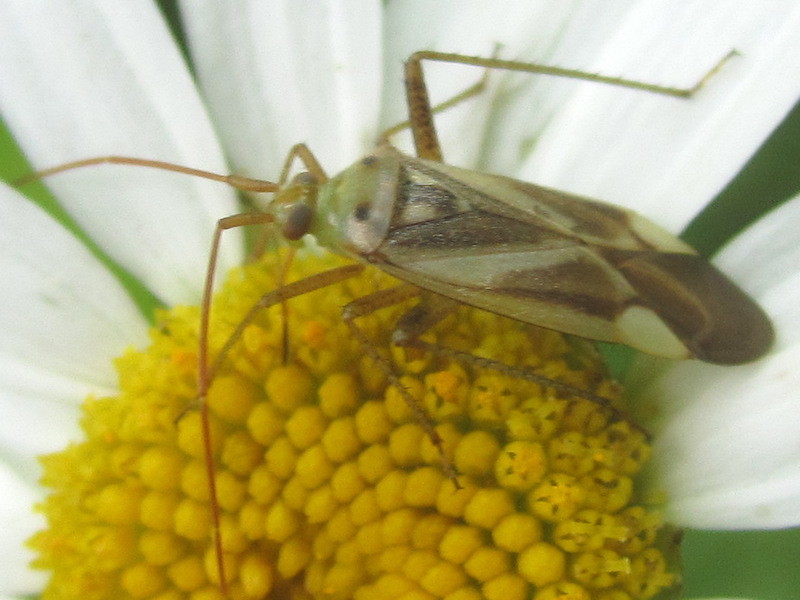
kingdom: Animalia
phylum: Arthropoda
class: Insecta
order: Hemiptera
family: Miridae
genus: Adelphocoris
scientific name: Adelphocoris lineolatus
